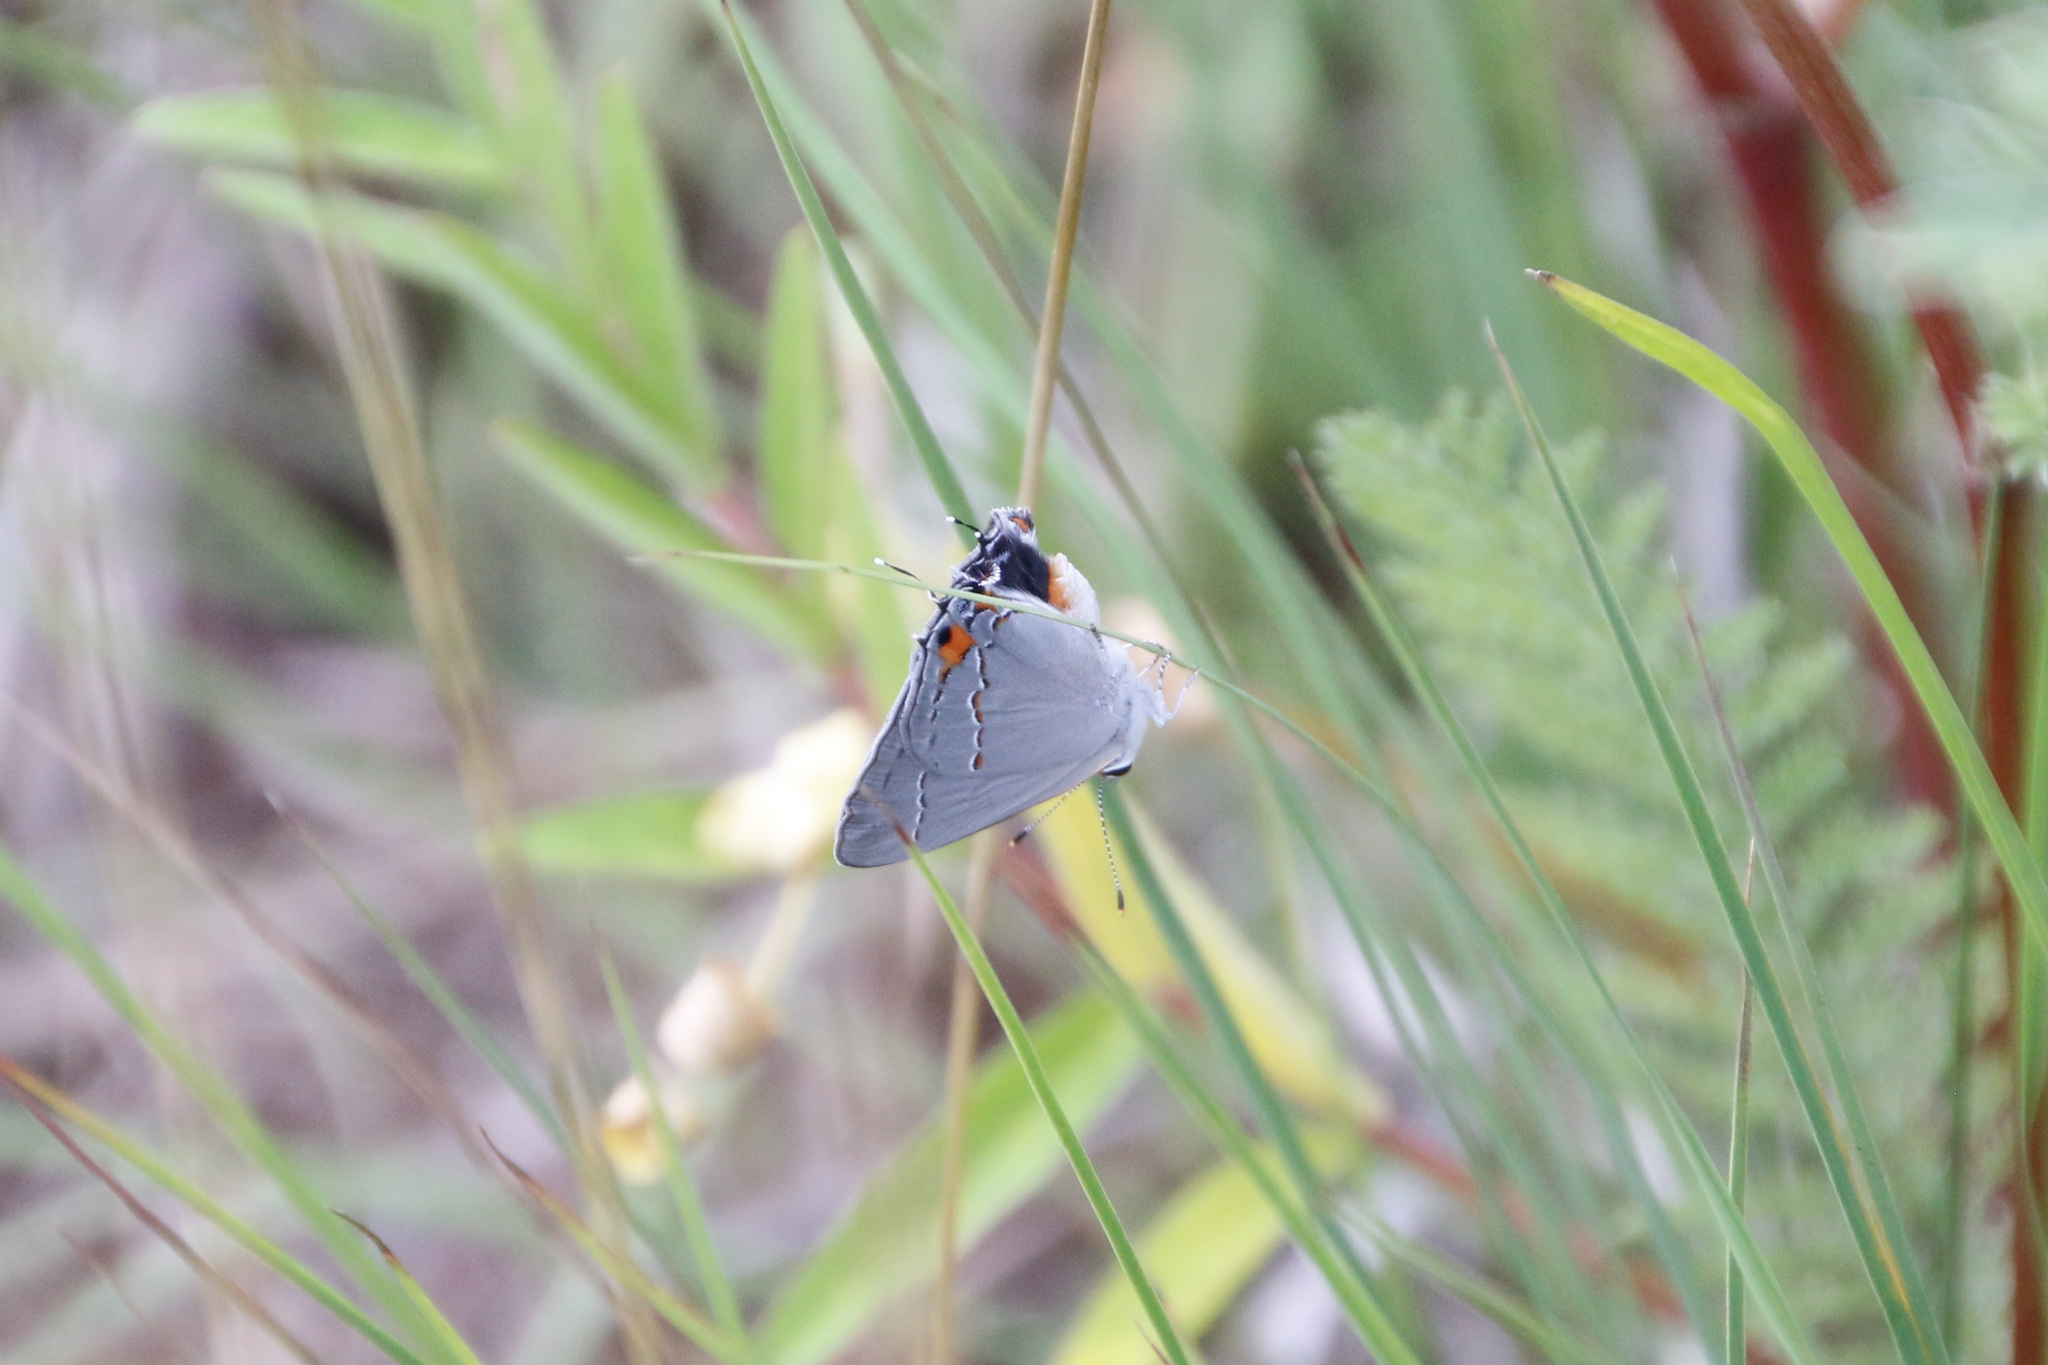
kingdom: Animalia
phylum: Arthropoda
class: Insecta
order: Lepidoptera
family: Lycaenidae
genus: Strymon
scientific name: Strymon melinus
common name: Gray hairstreak
